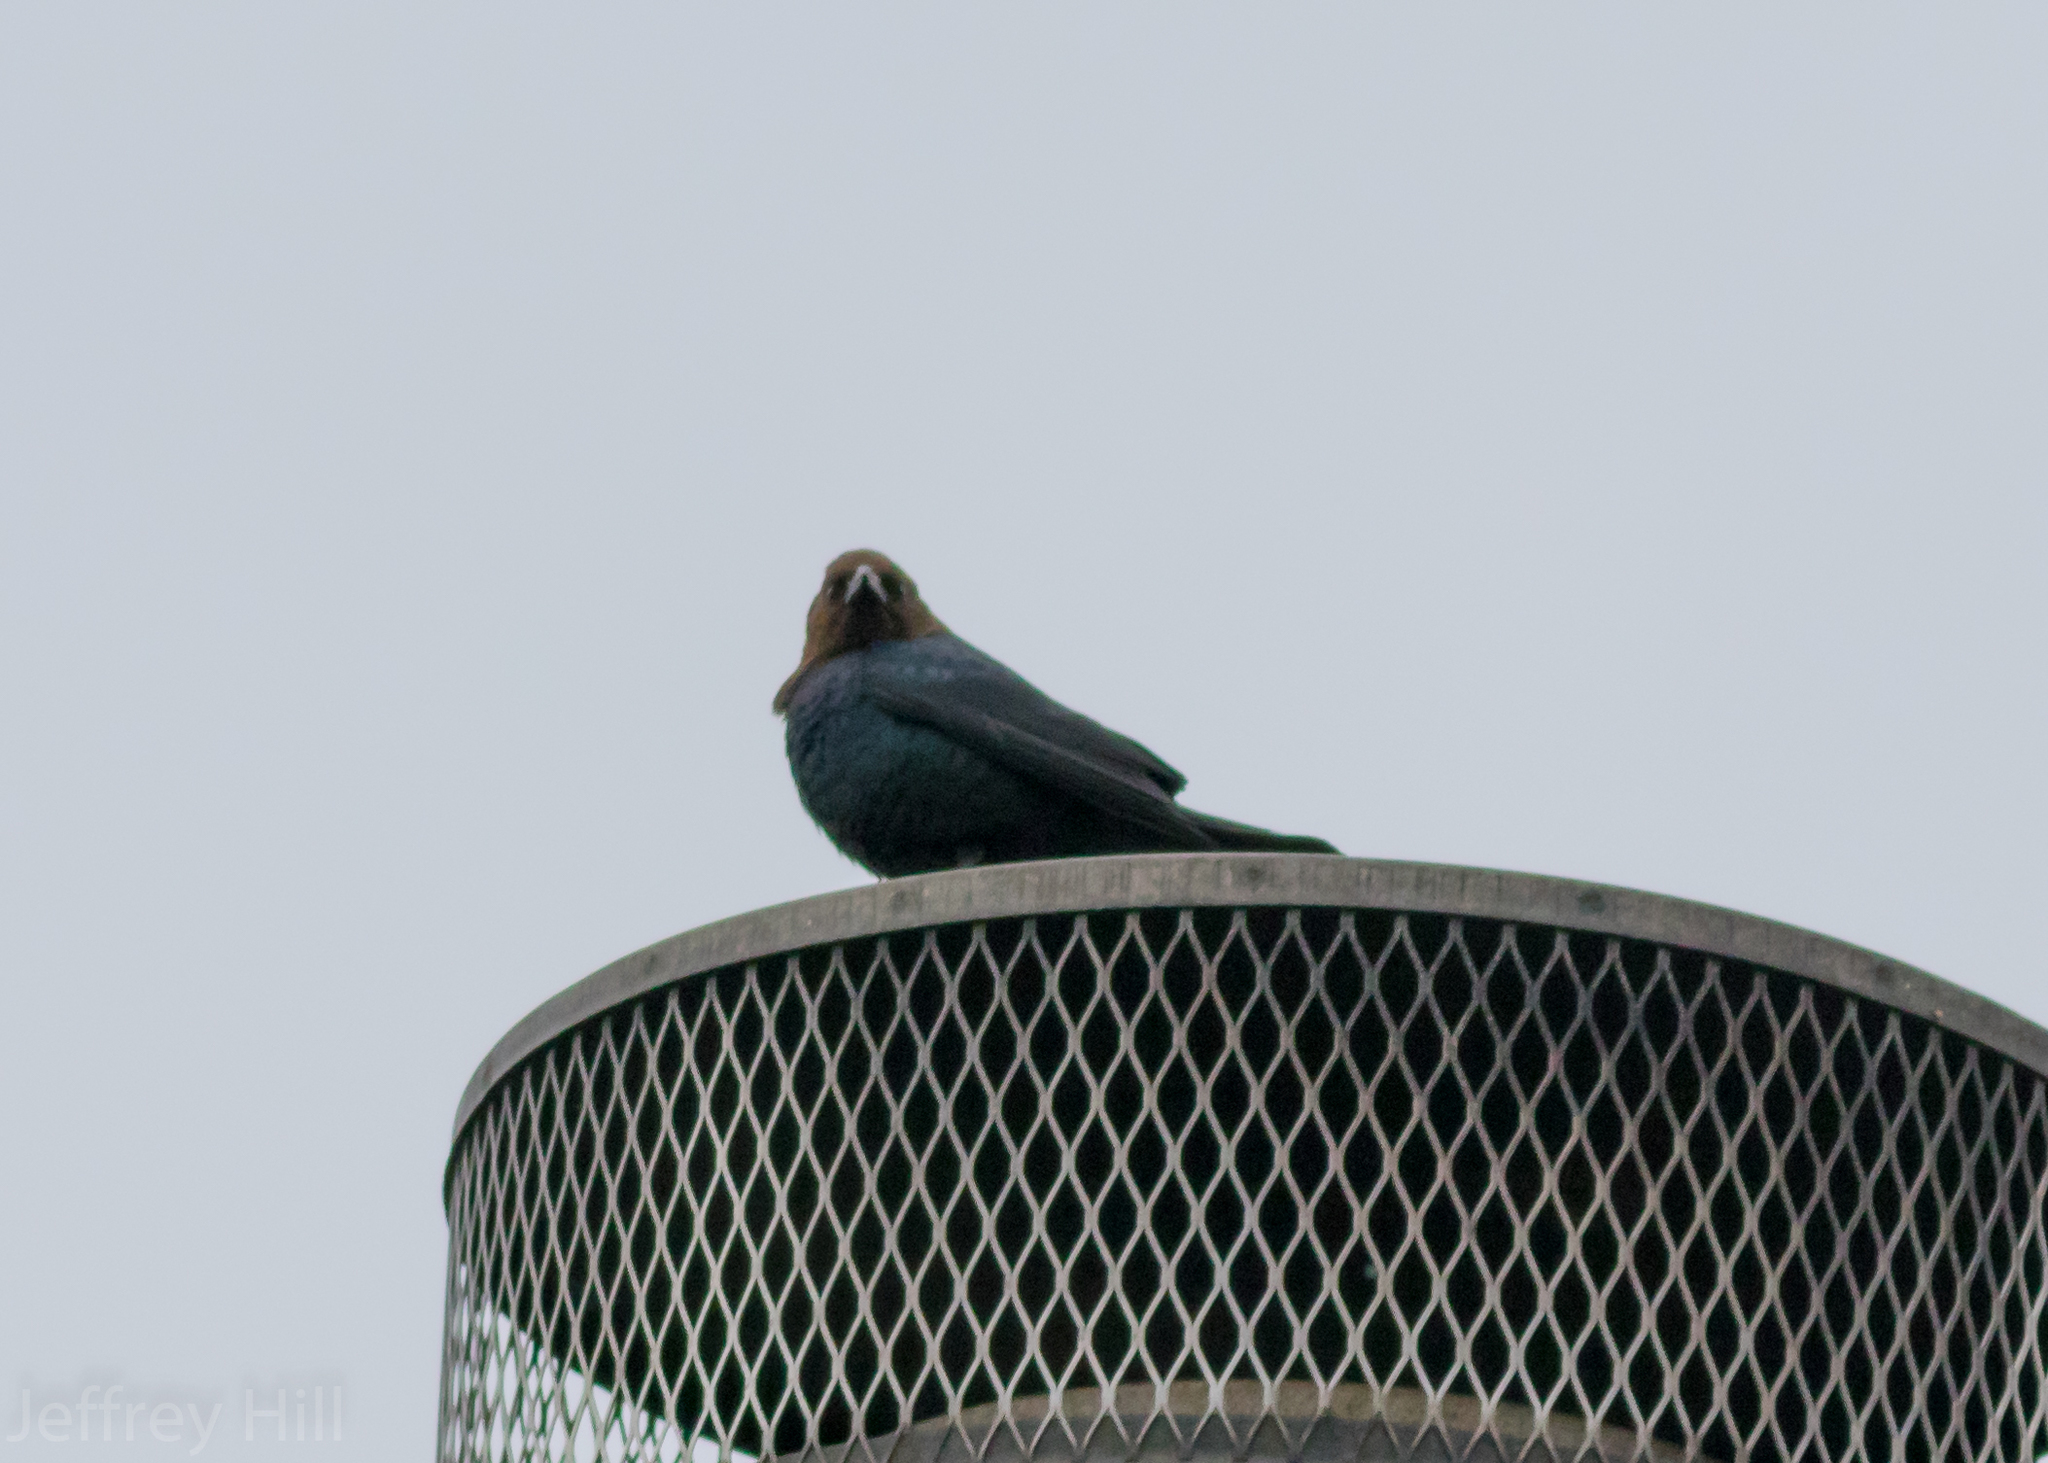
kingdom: Animalia
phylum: Chordata
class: Aves
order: Passeriformes
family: Icteridae
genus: Molothrus
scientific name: Molothrus ater
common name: Brown-headed cowbird
